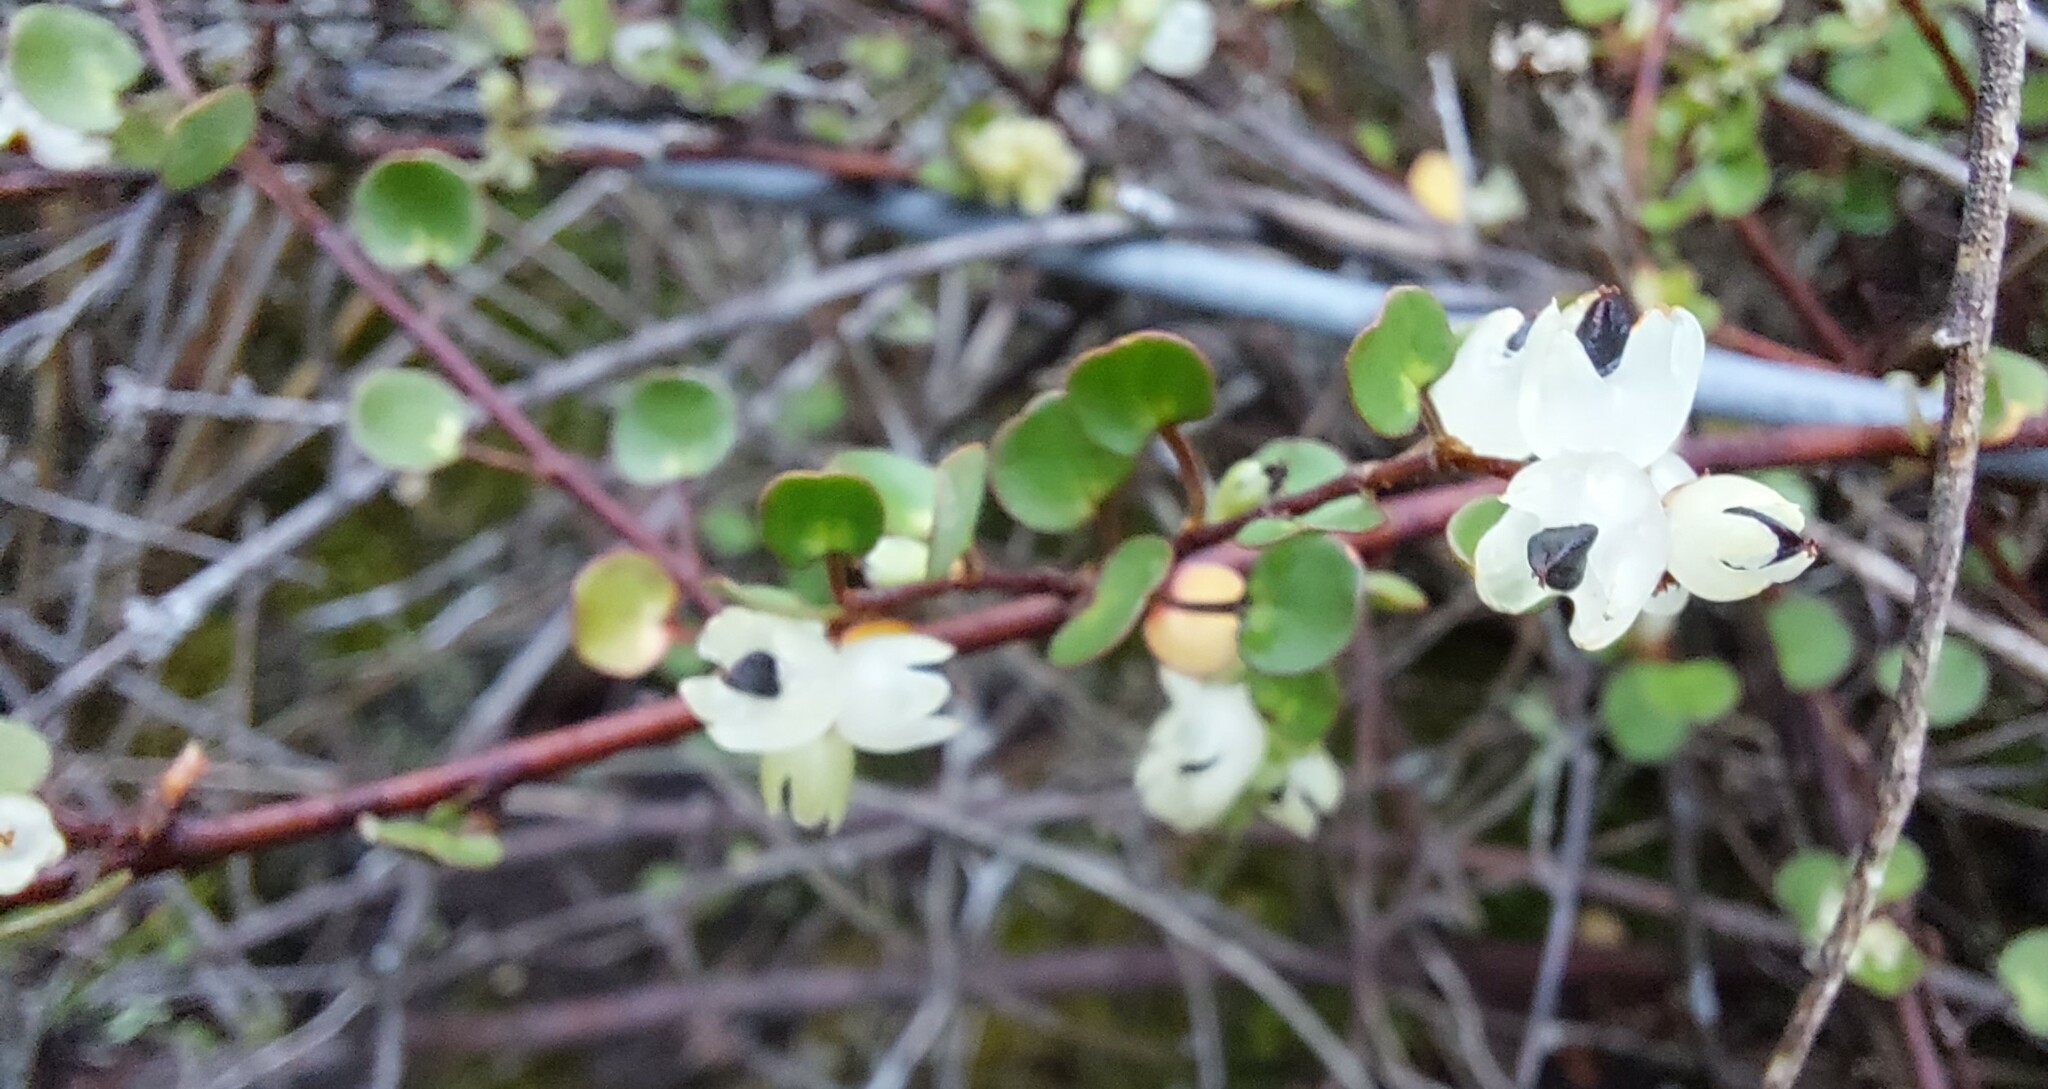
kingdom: Plantae
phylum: Tracheophyta
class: Magnoliopsida
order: Caryophyllales
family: Polygonaceae
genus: Muehlenbeckia
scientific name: Muehlenbeckia complexa
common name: Wireplant
